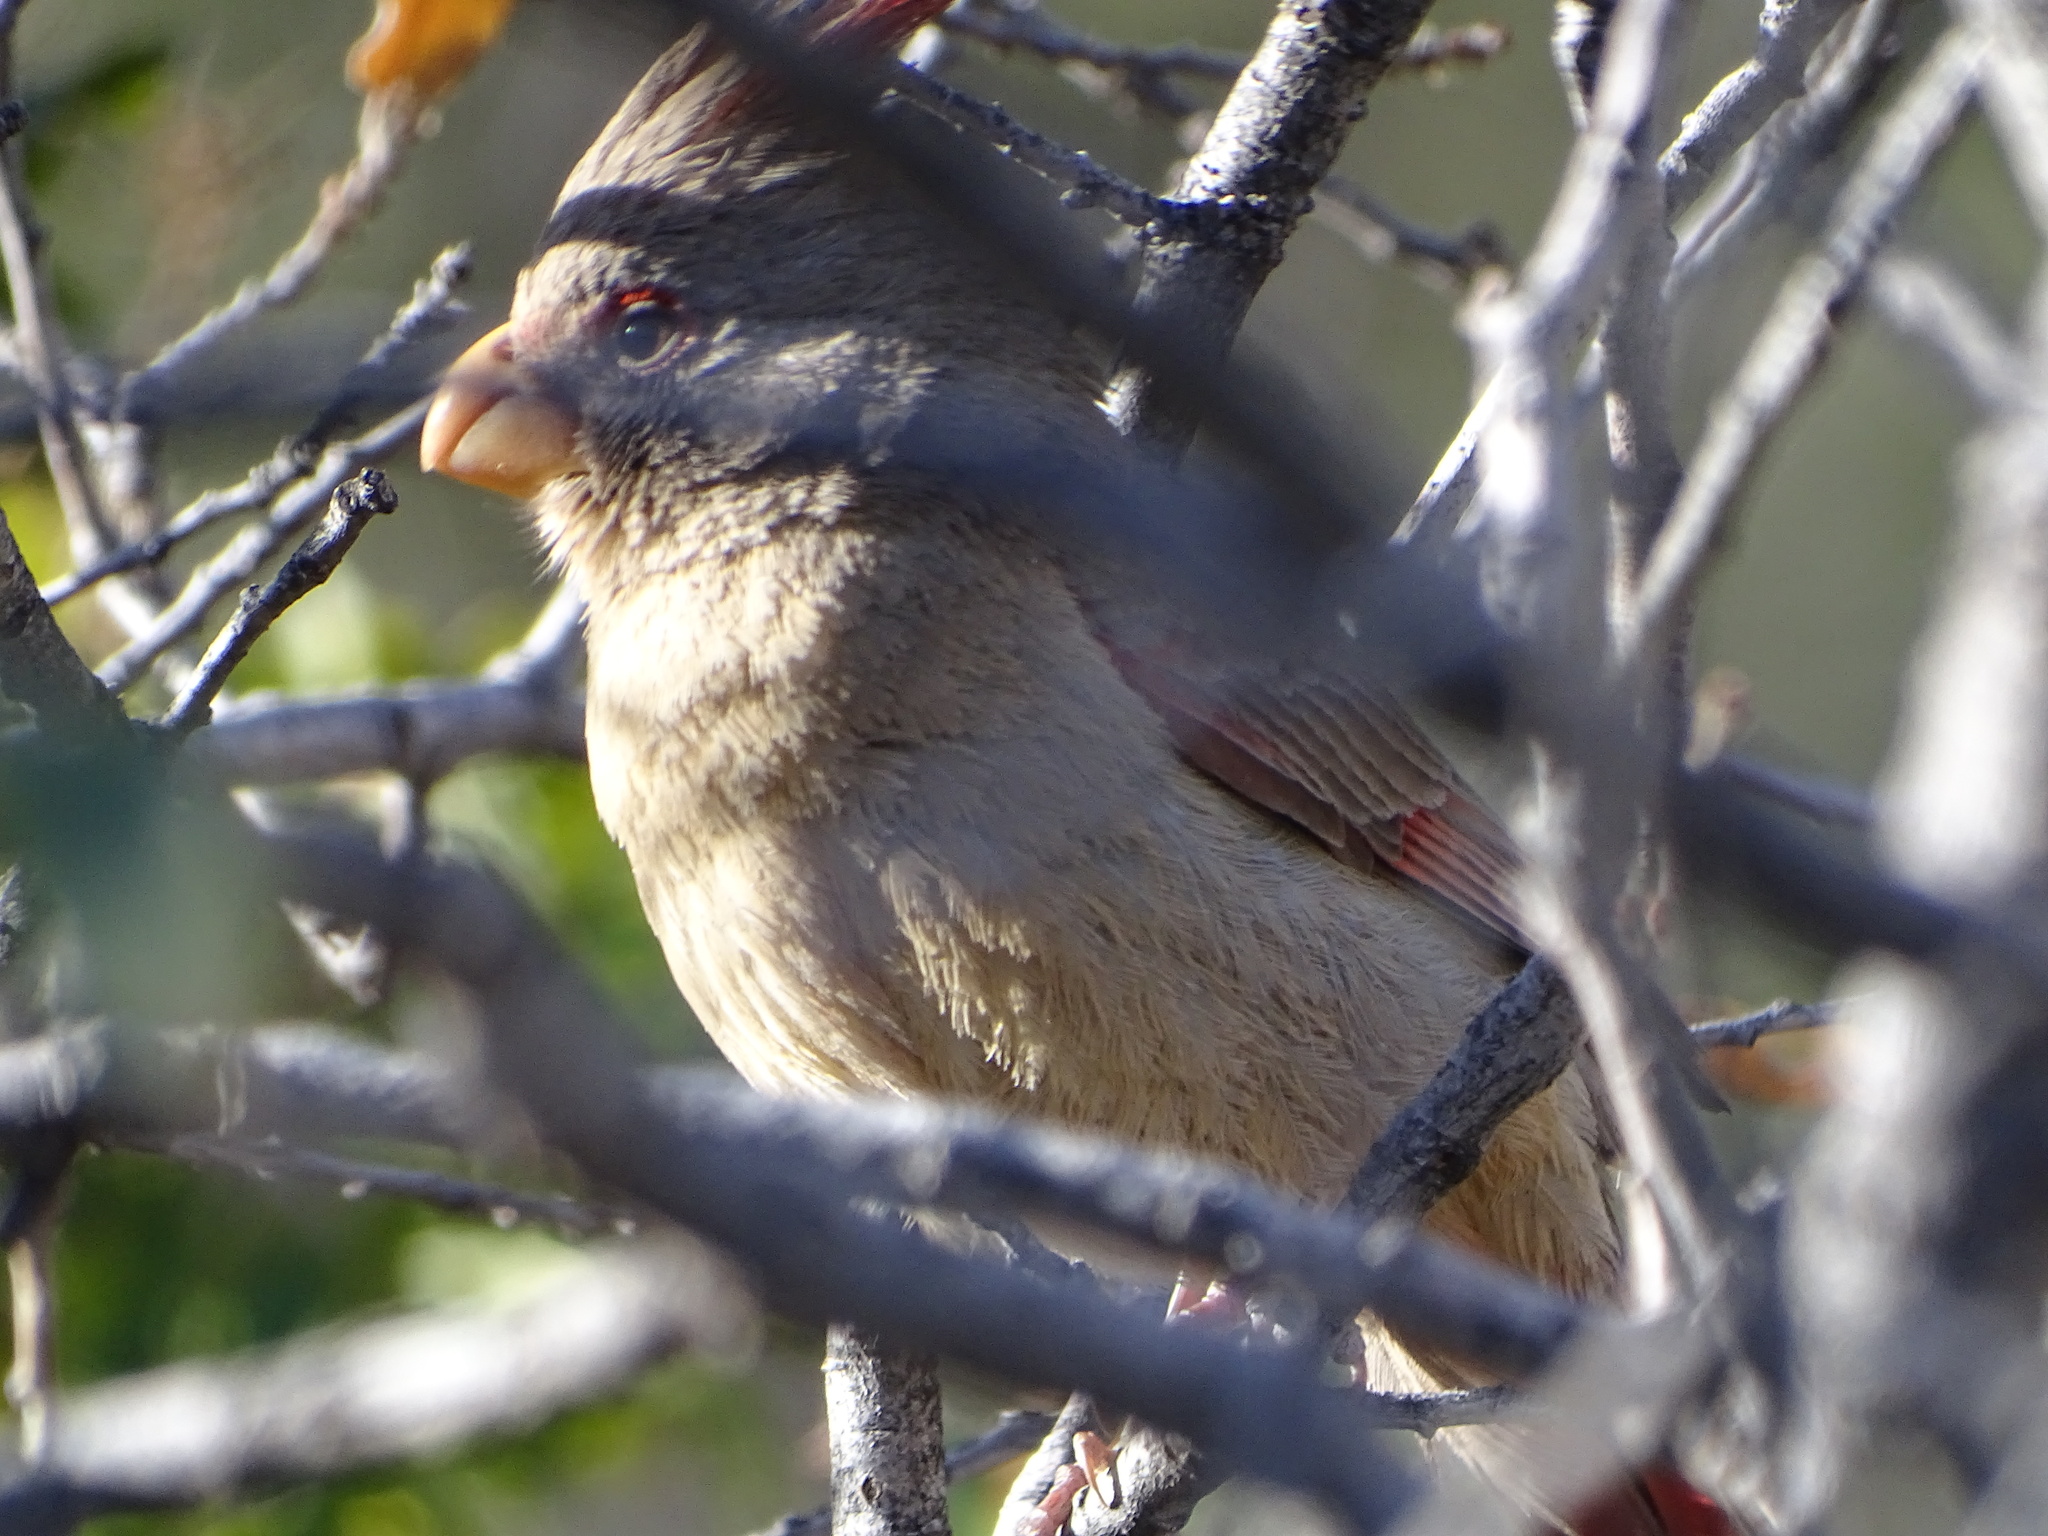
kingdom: Animalia
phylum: Chordata
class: Aves
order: Passeriformes
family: Cardinalidae
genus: Cardinalis
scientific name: Cardinalis sinuatus
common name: Pyrrhuloxia
